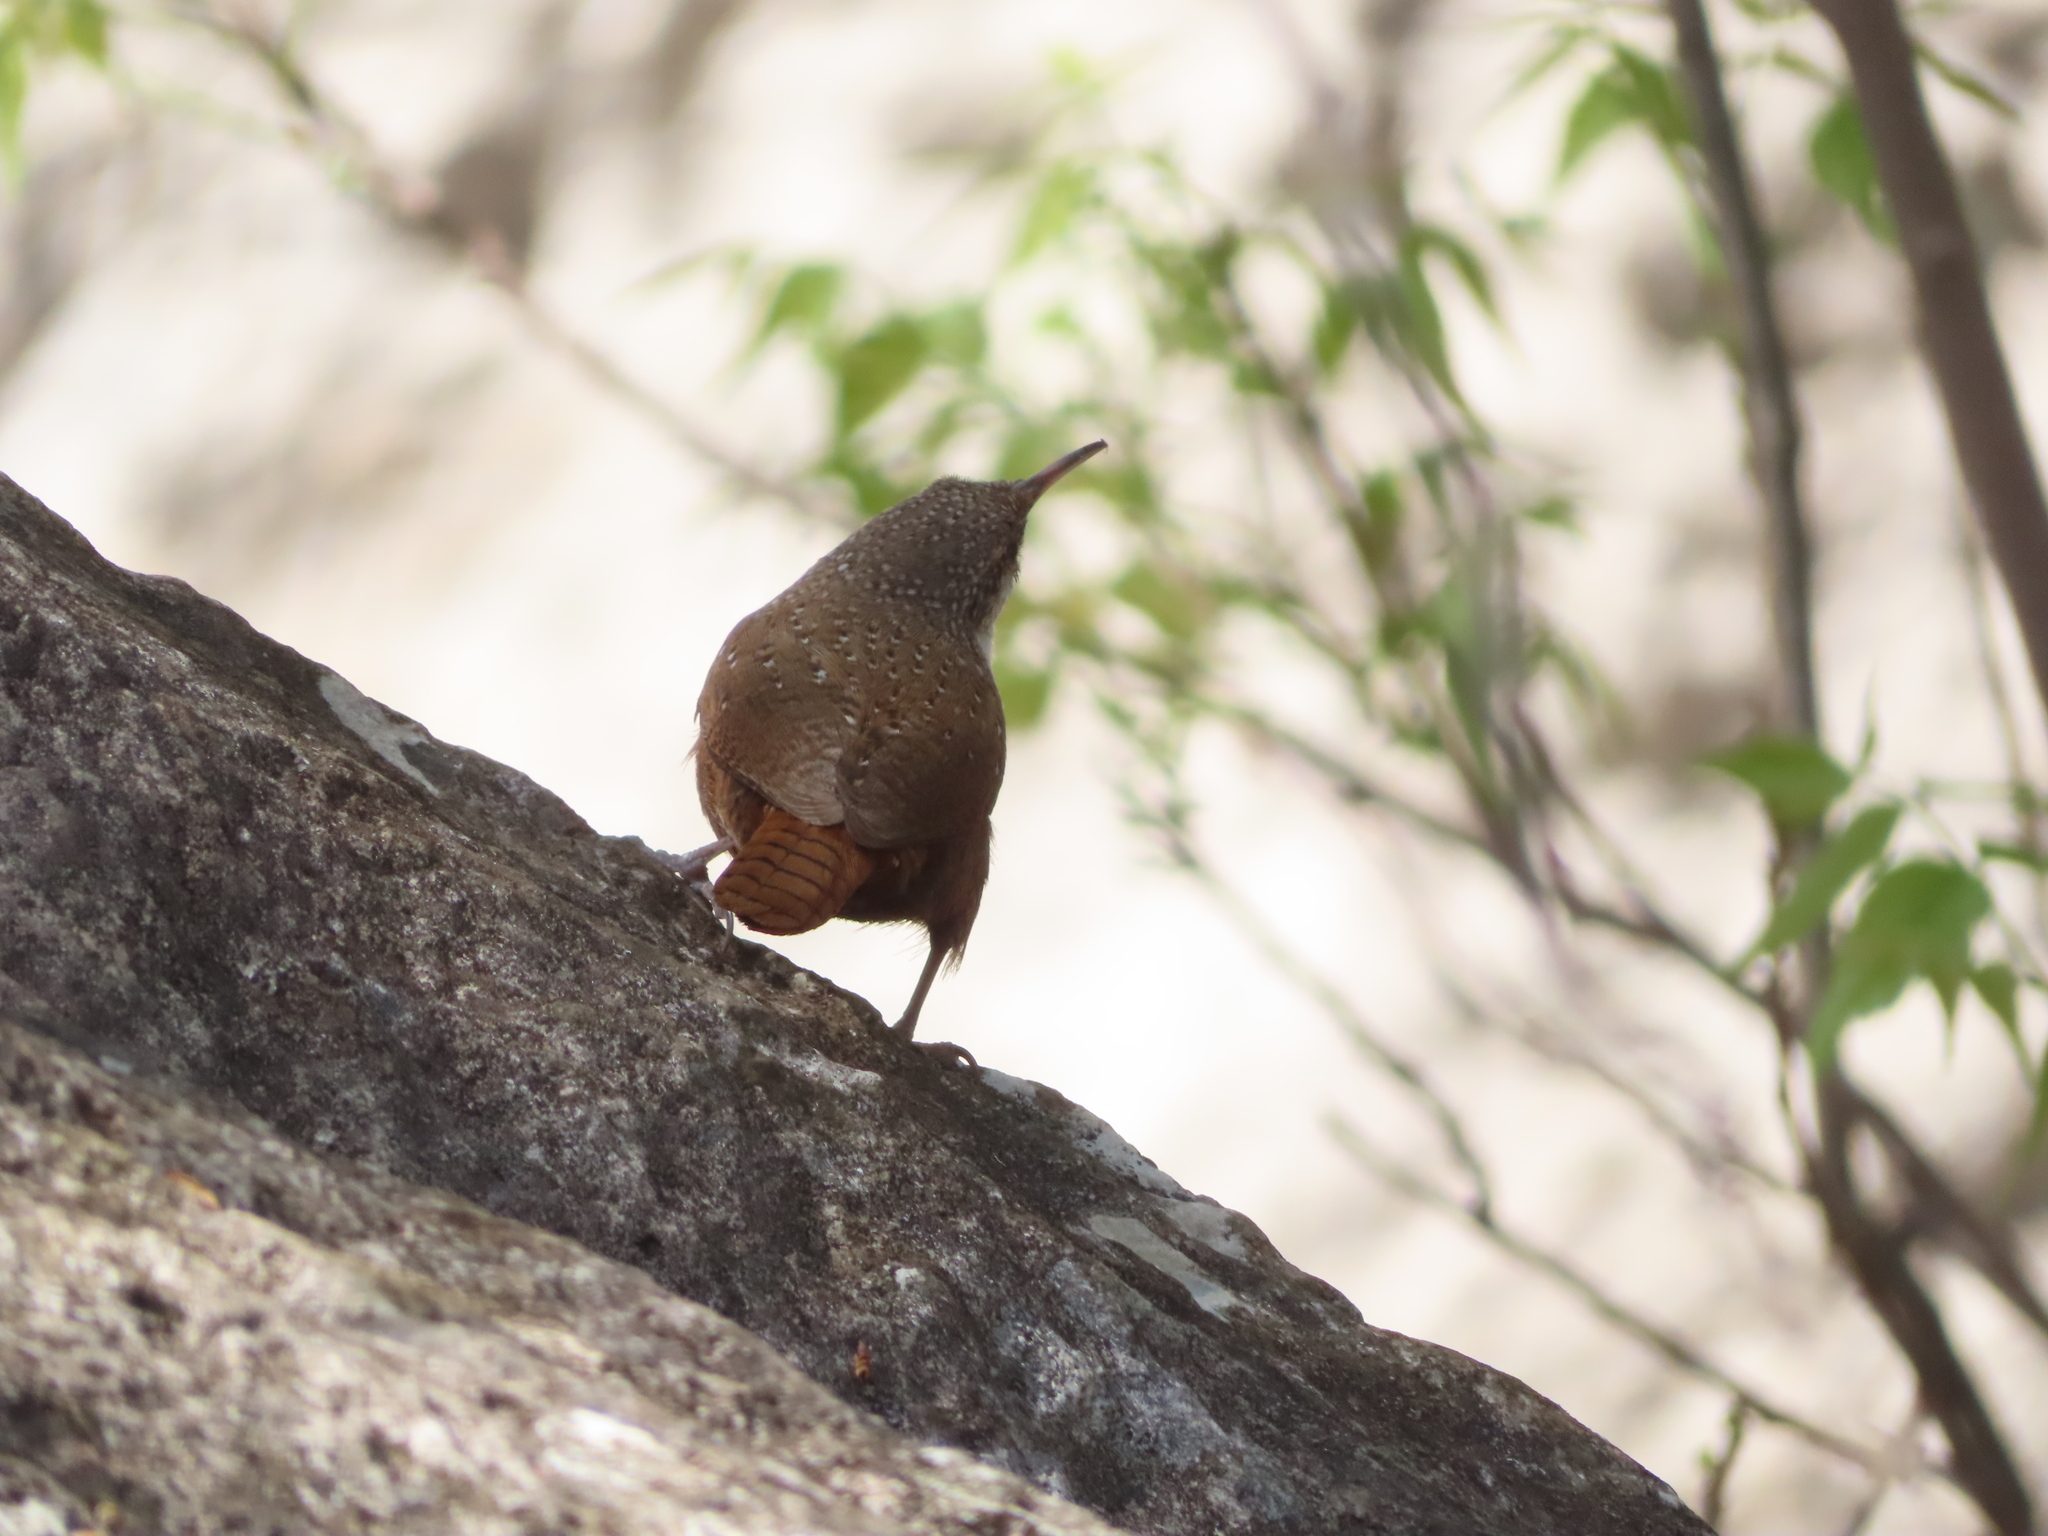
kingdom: Animalia
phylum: Chordata
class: Aves
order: Passeriformes
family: Troglodytidae
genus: Catherpes
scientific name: Catherpes mexicanus
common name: Canyon wren
